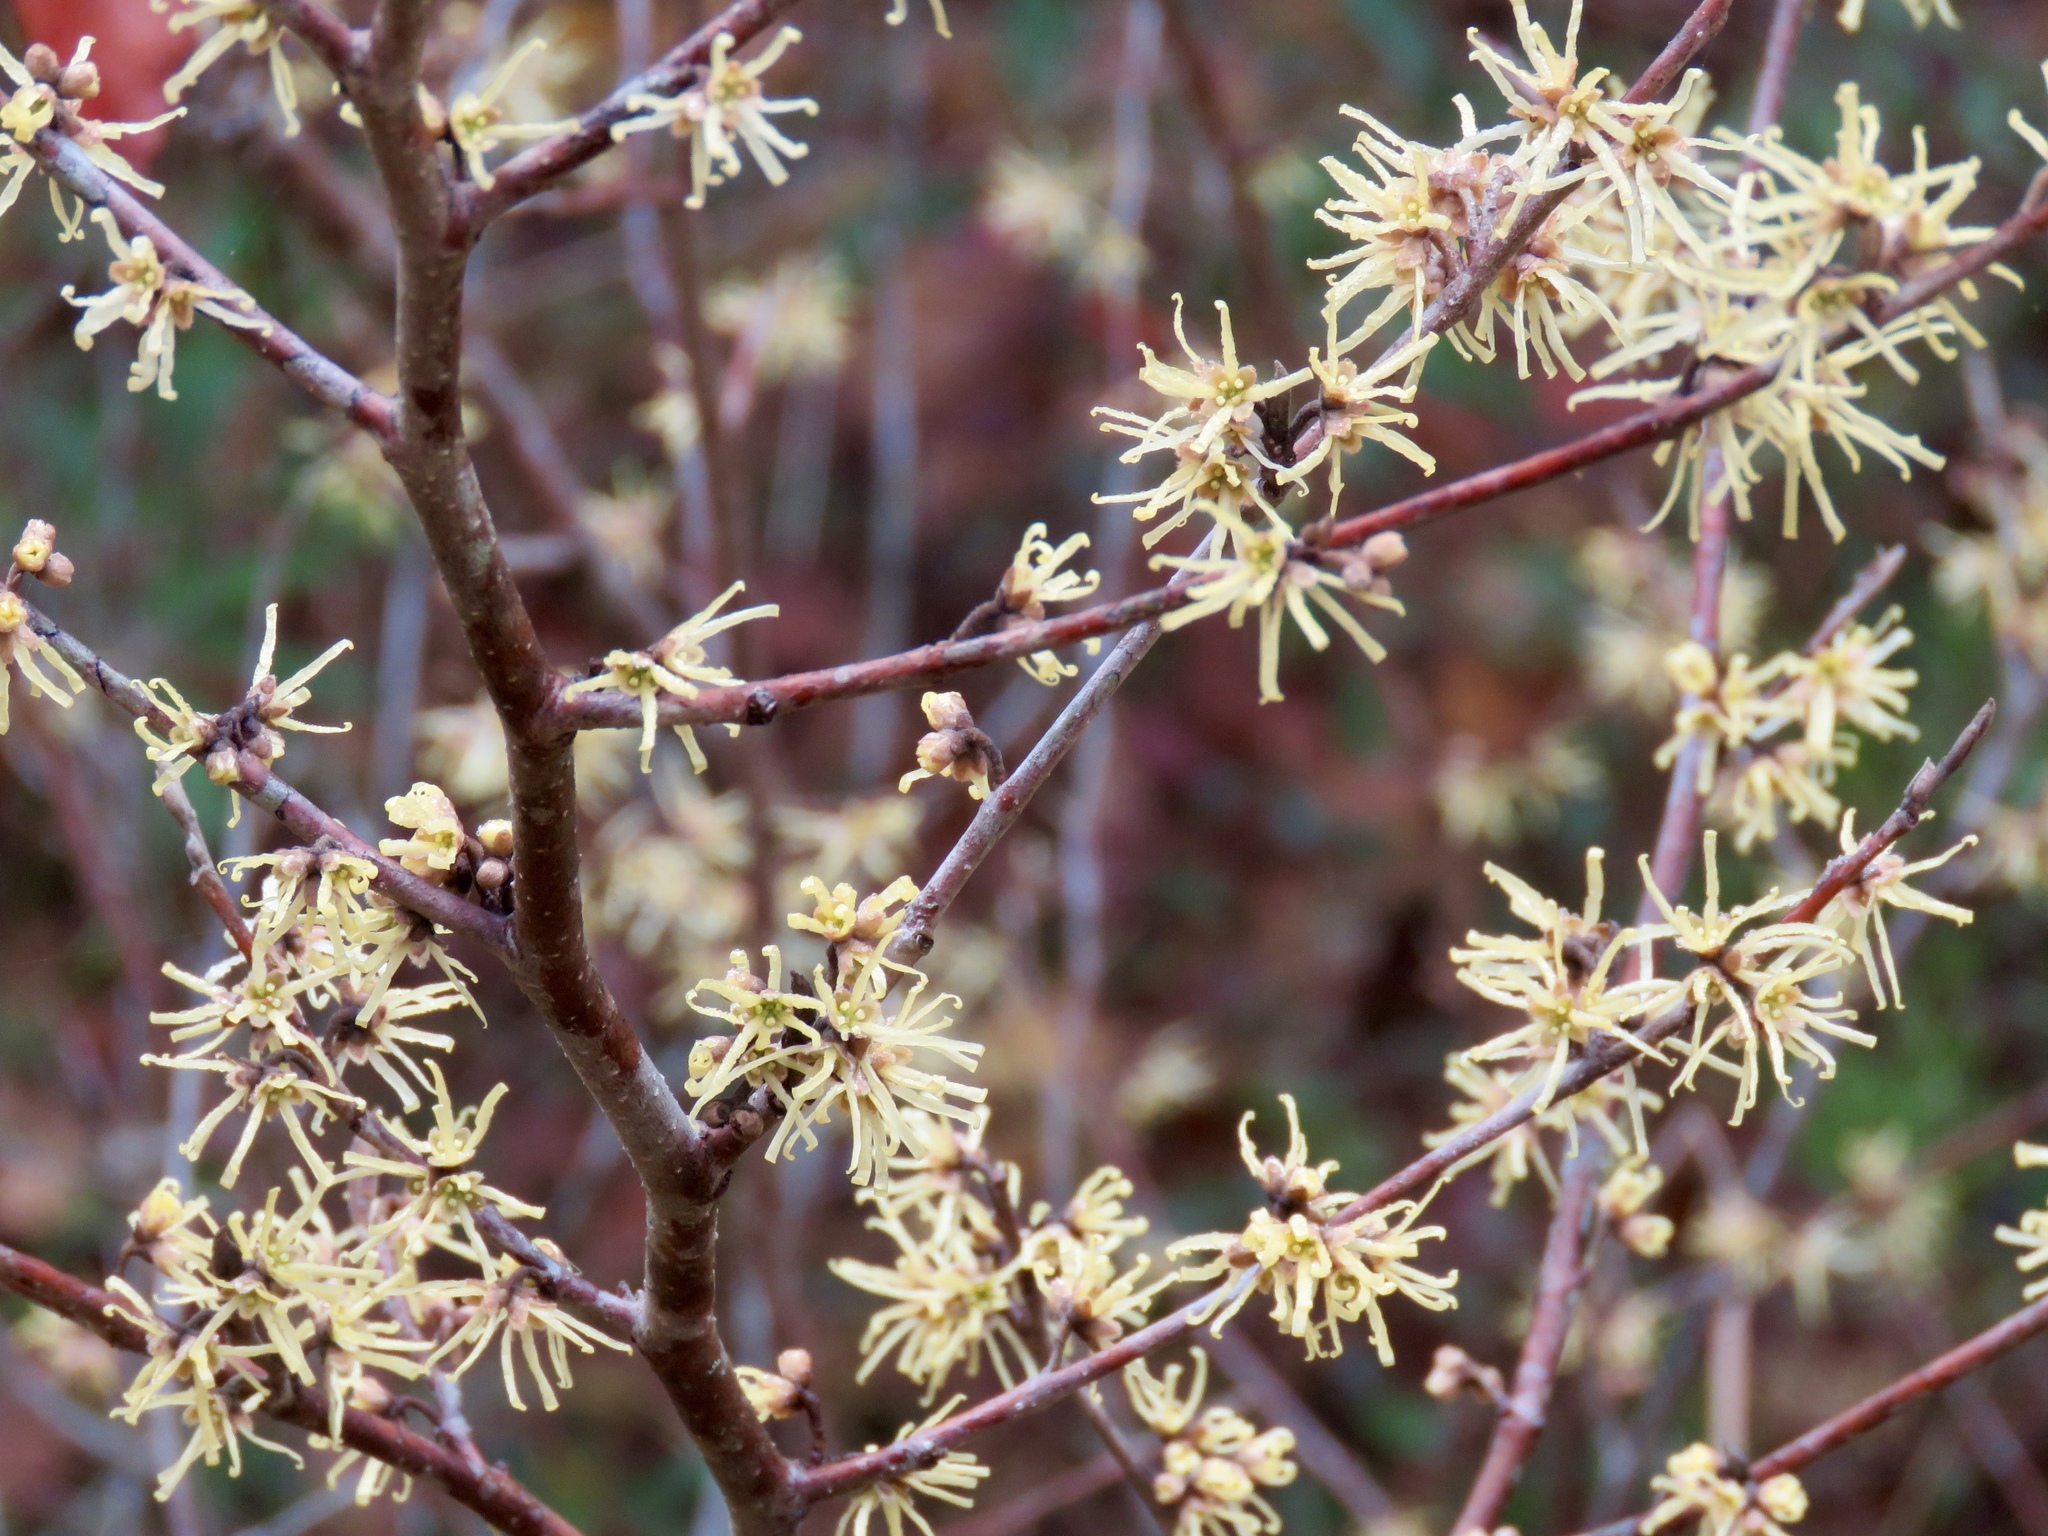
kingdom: Plantae
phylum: Tracheophyta
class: Magnoliopsida
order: Saxifragales
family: Hamamelidaceae
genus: Hamamelis
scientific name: Hamamelis virginiana
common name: Witch-hazel
